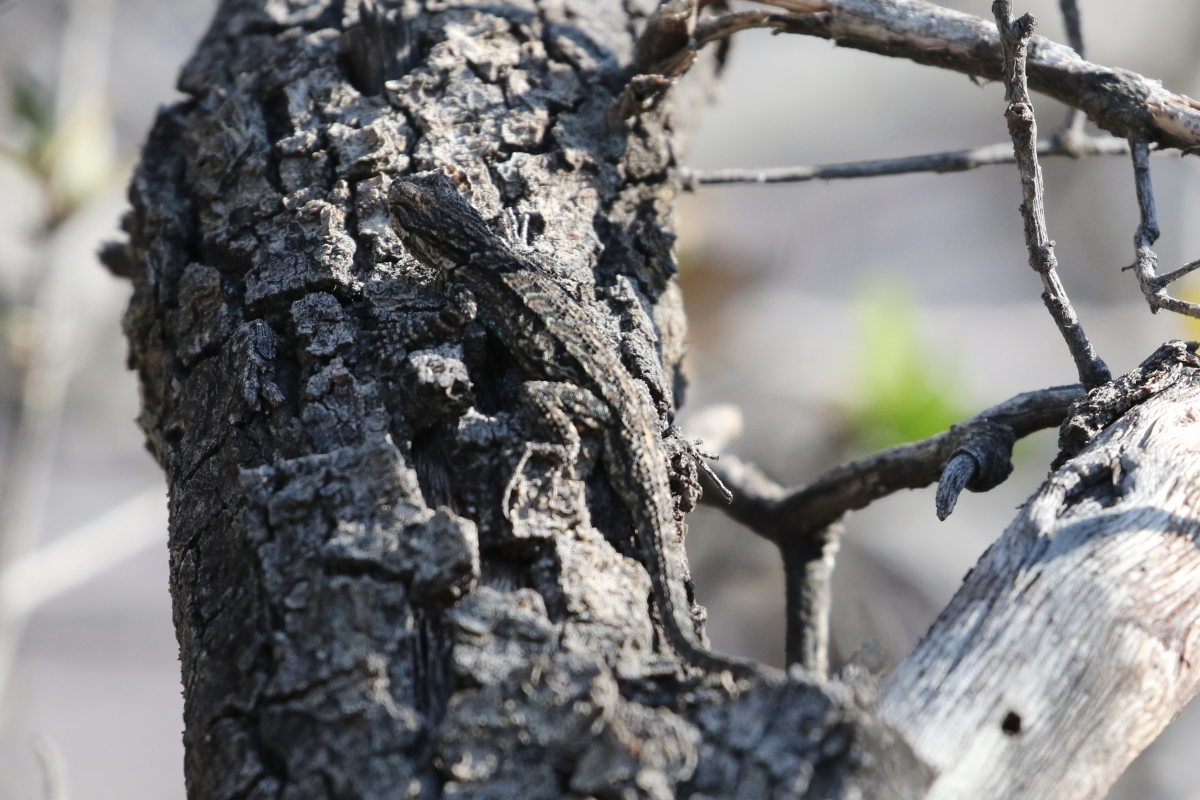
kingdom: Animalia
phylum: Chordata
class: Squamata
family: Phrynosomatidae
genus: Urosaurus
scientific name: Urosaurus ornatus
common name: Ornate tree lizard
